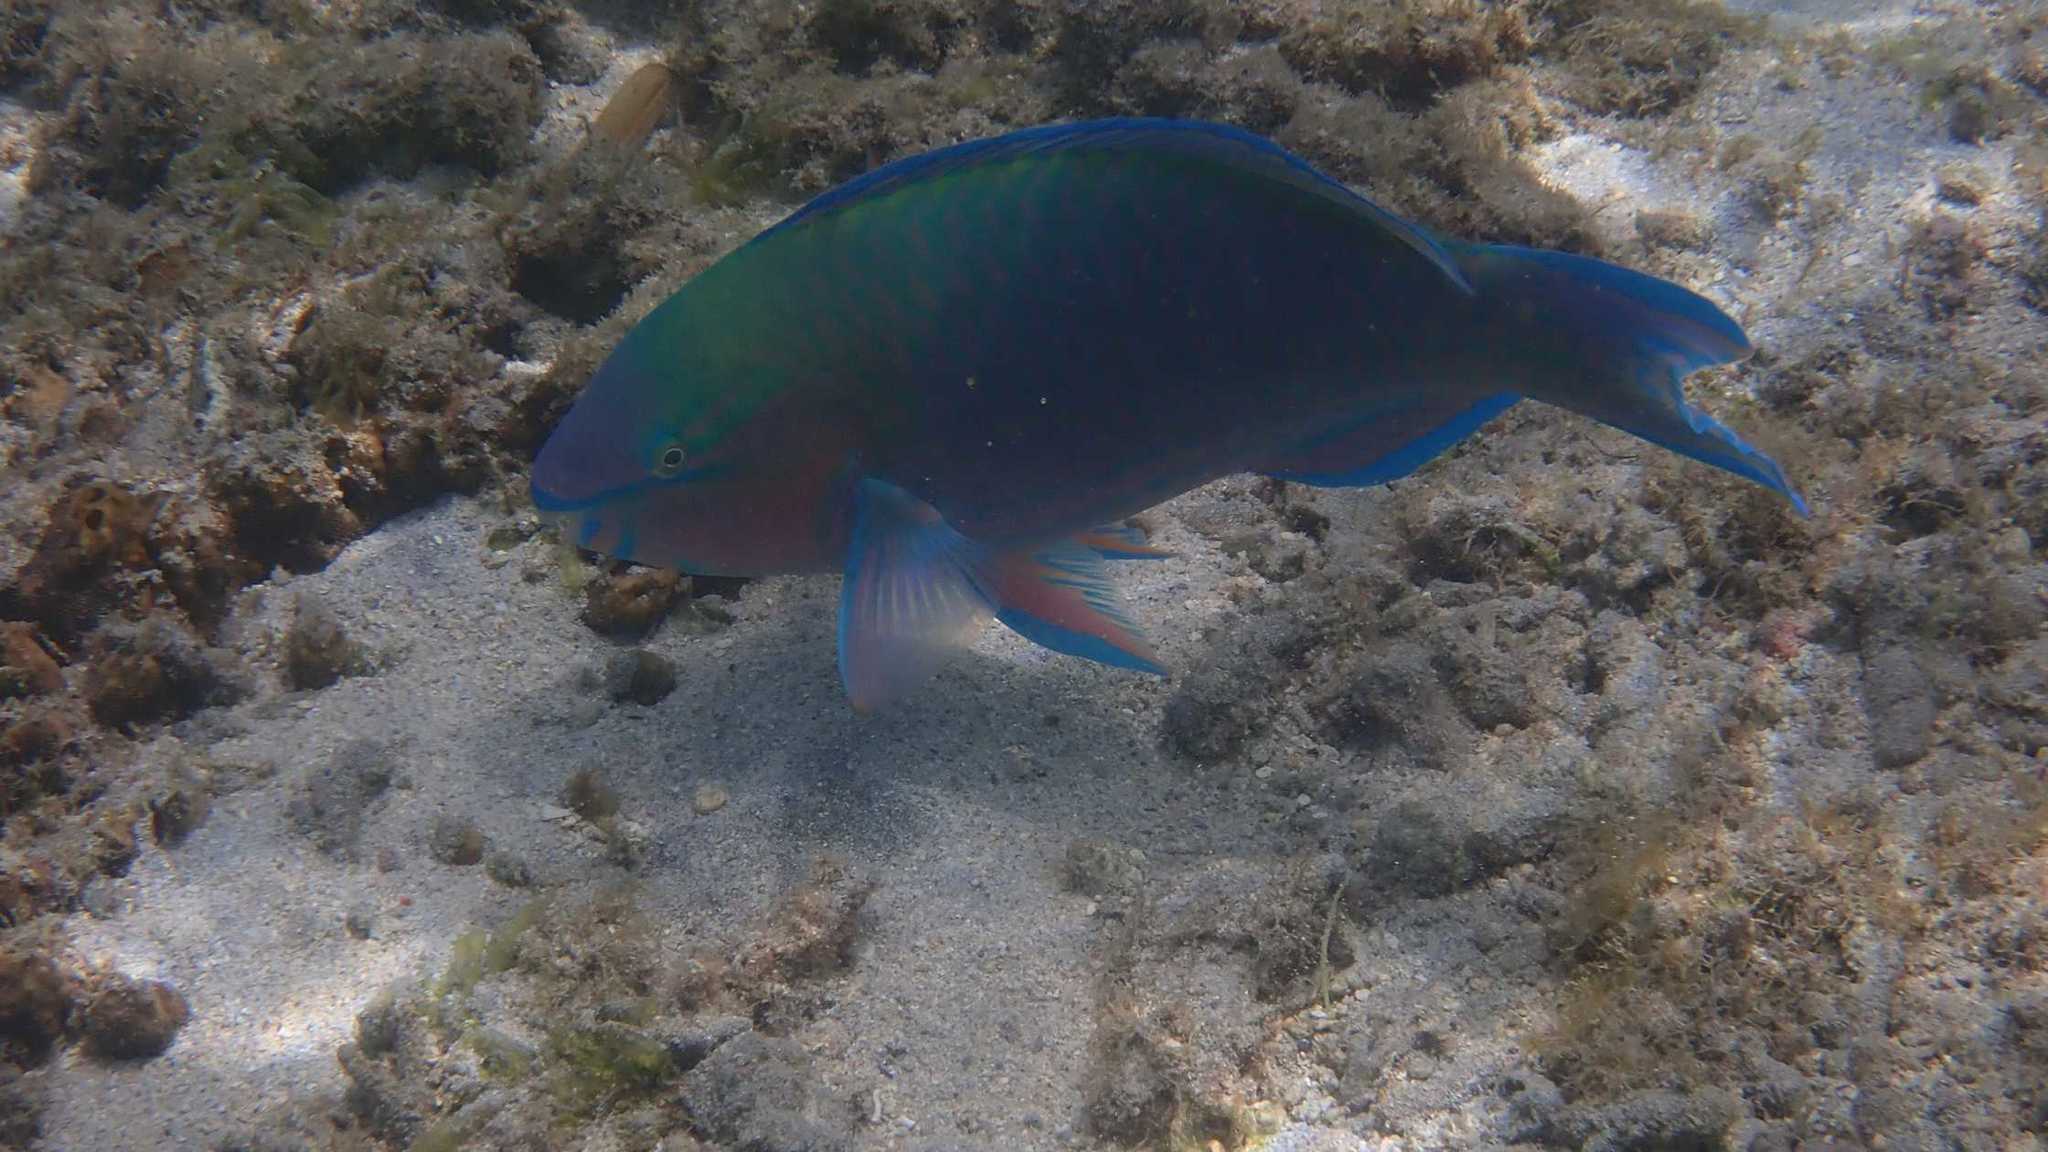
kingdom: Animalia
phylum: Chordata
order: Perciformes
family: Scaridae
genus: Scarus
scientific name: Scarus psittacus
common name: Palenose parrotfish
